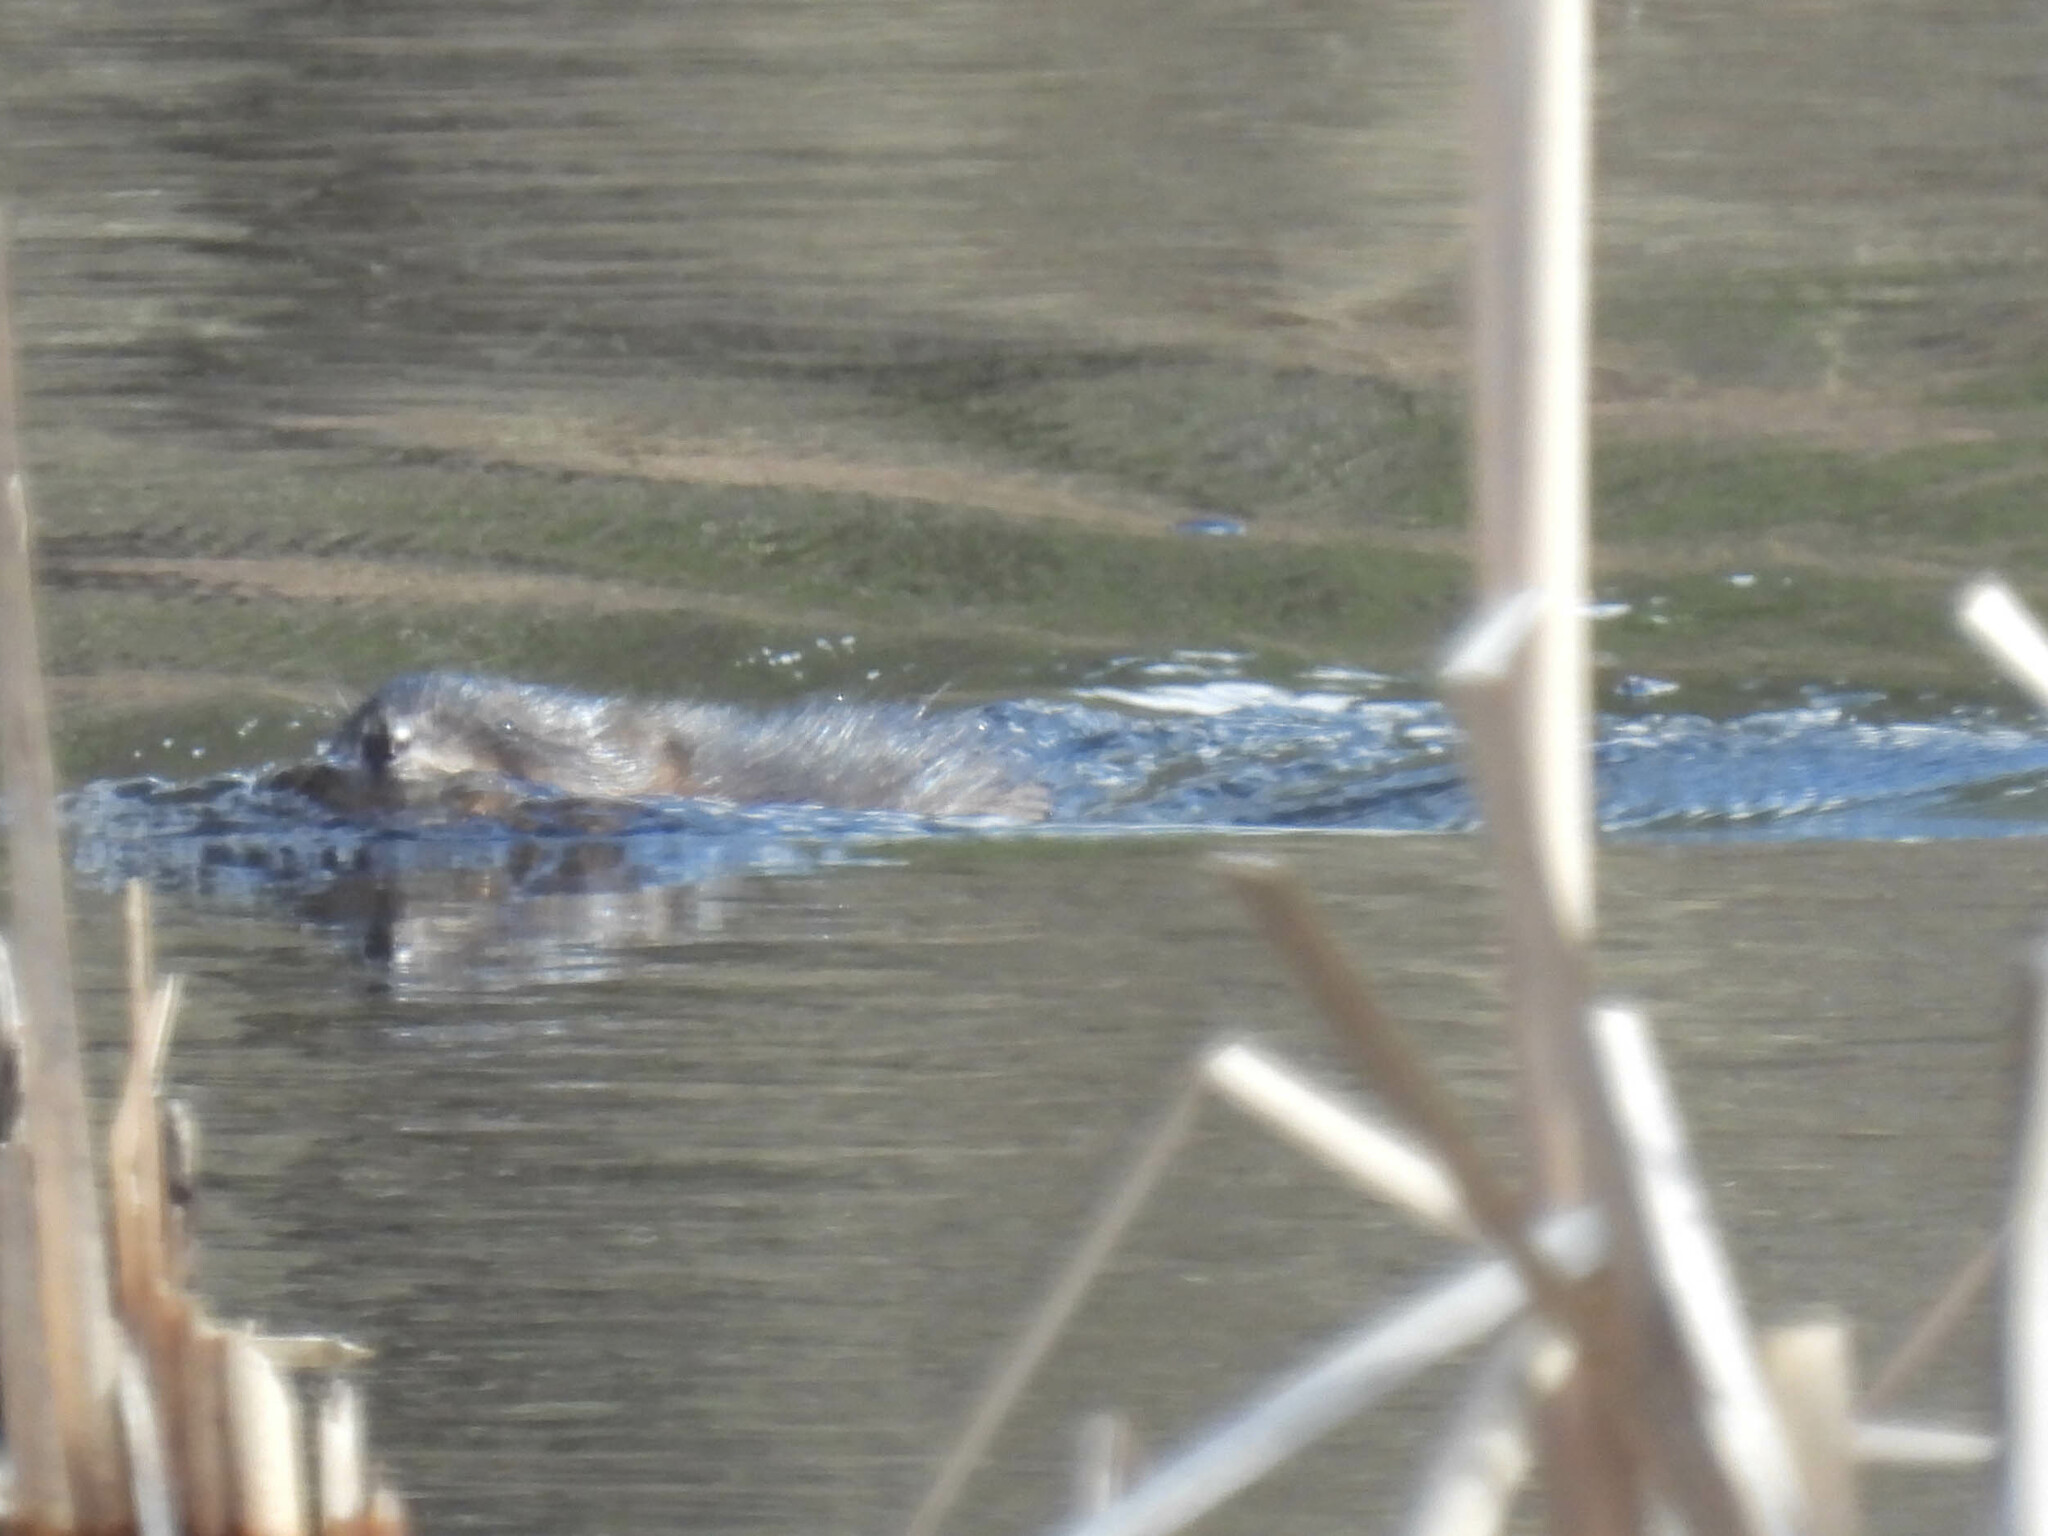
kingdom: Animalia
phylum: Chordata
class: Mammalia
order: Rodentia
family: Cricetidae
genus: Ondatra
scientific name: Ondatra zibethicus
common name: Muskrat
